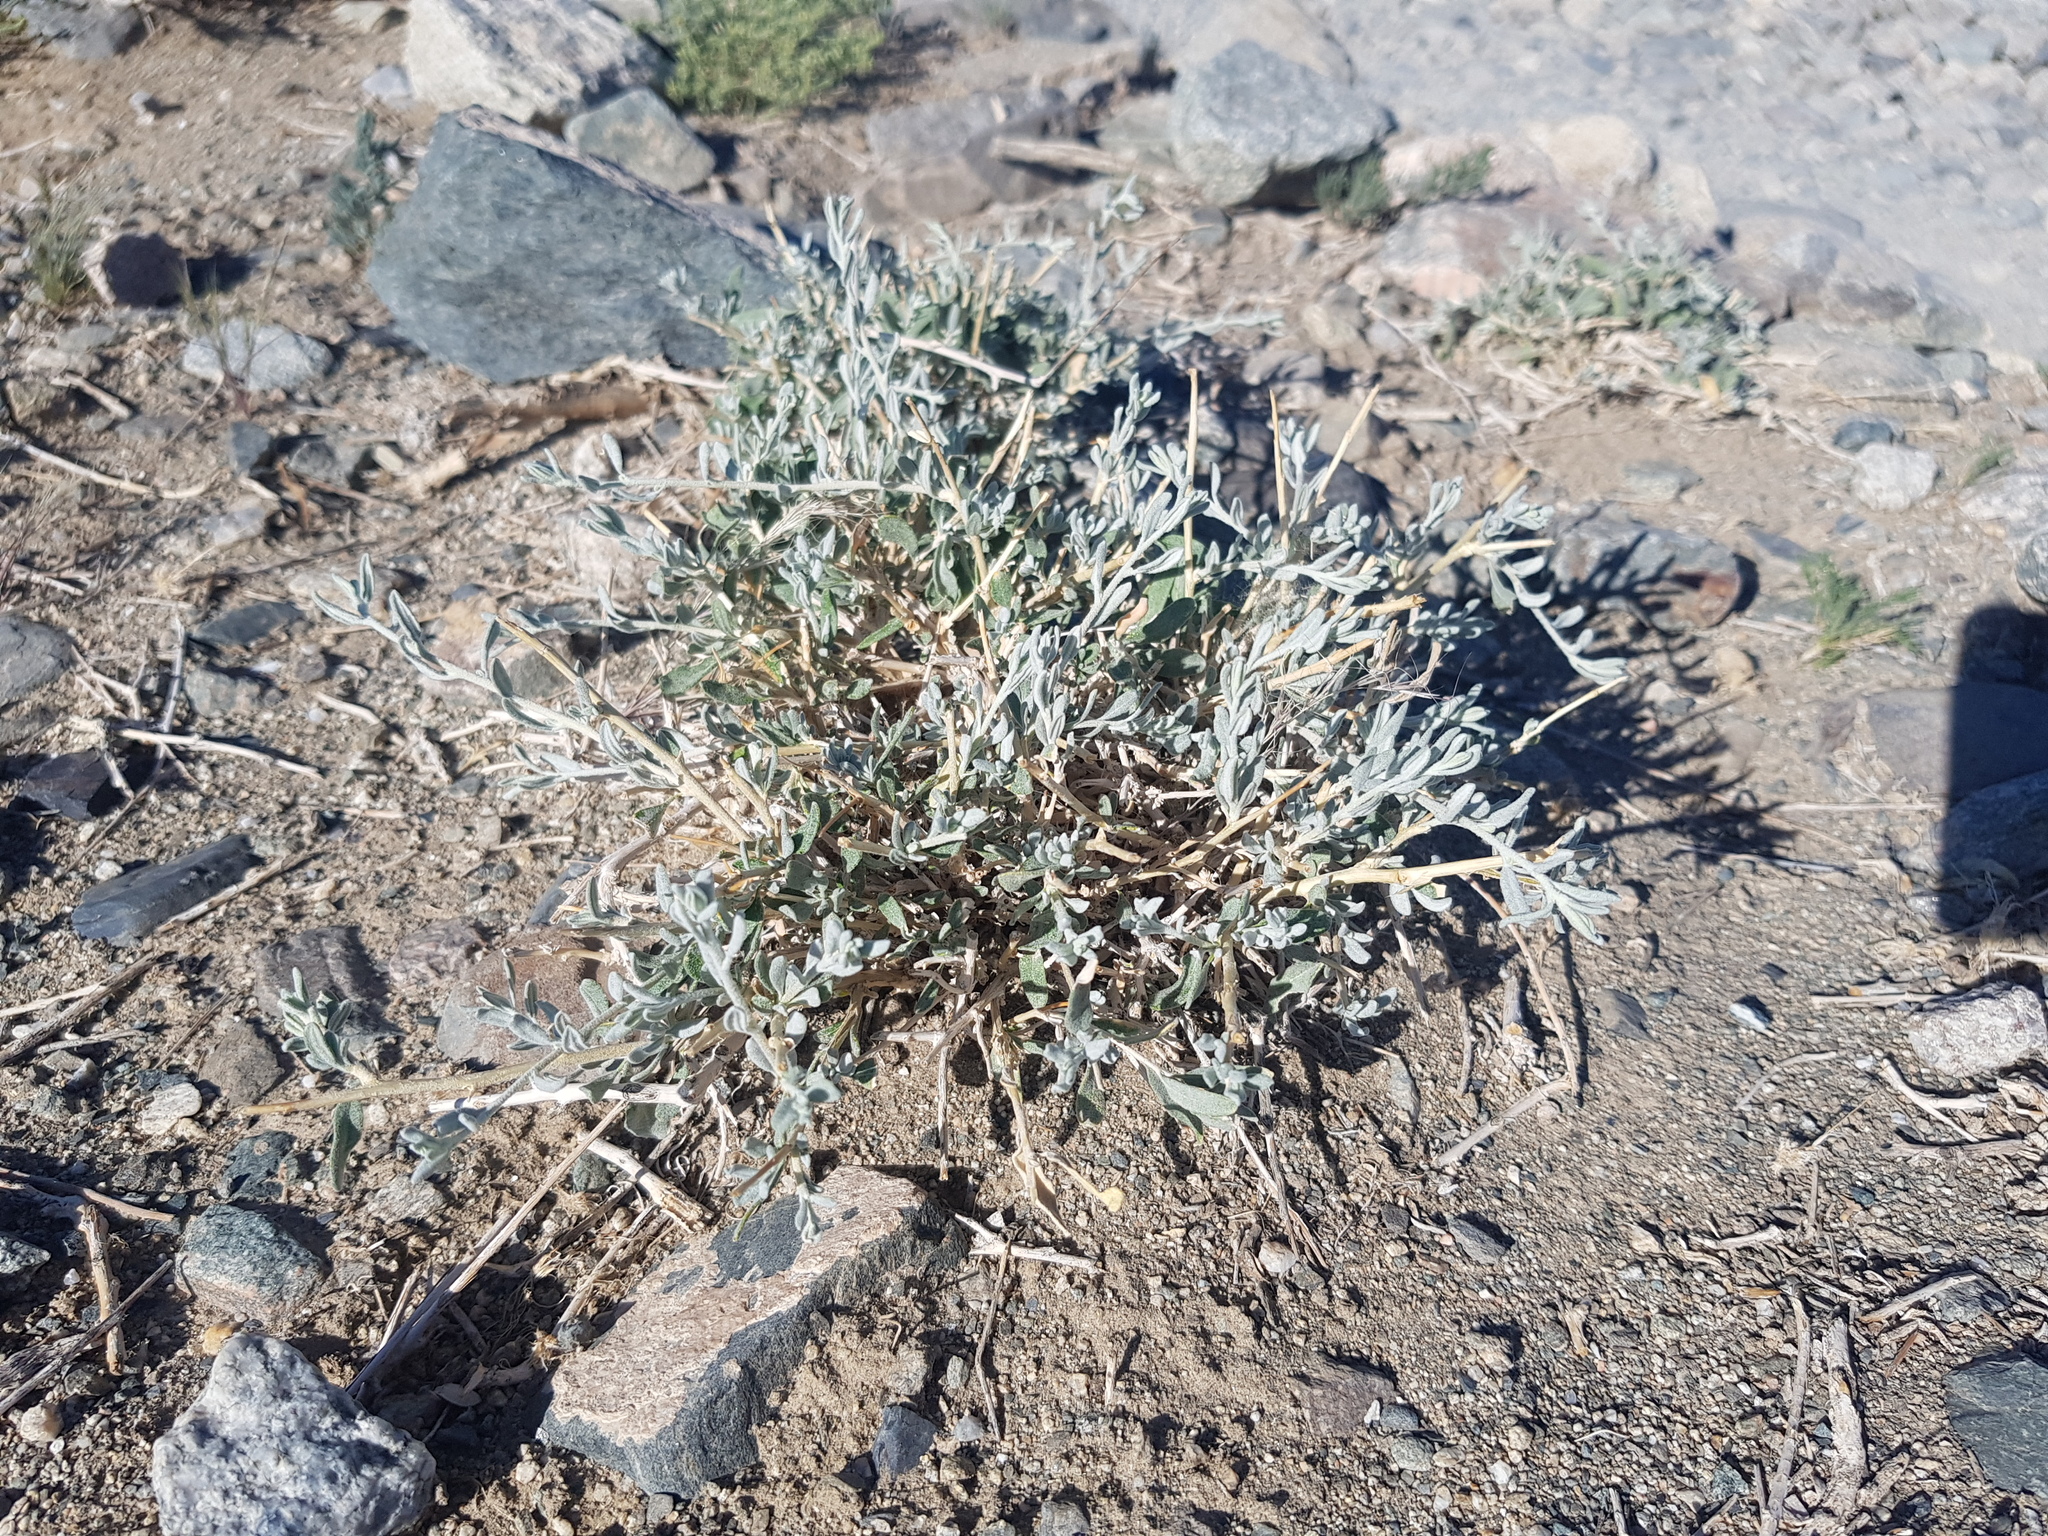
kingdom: Plantae
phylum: Tracheophyta
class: Magnoliopsida
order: Caryophyllales
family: Amaranthaceae
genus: Krascheninnikovia
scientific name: Krascheninnikovia ceratoides
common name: Pamirian winterfat
